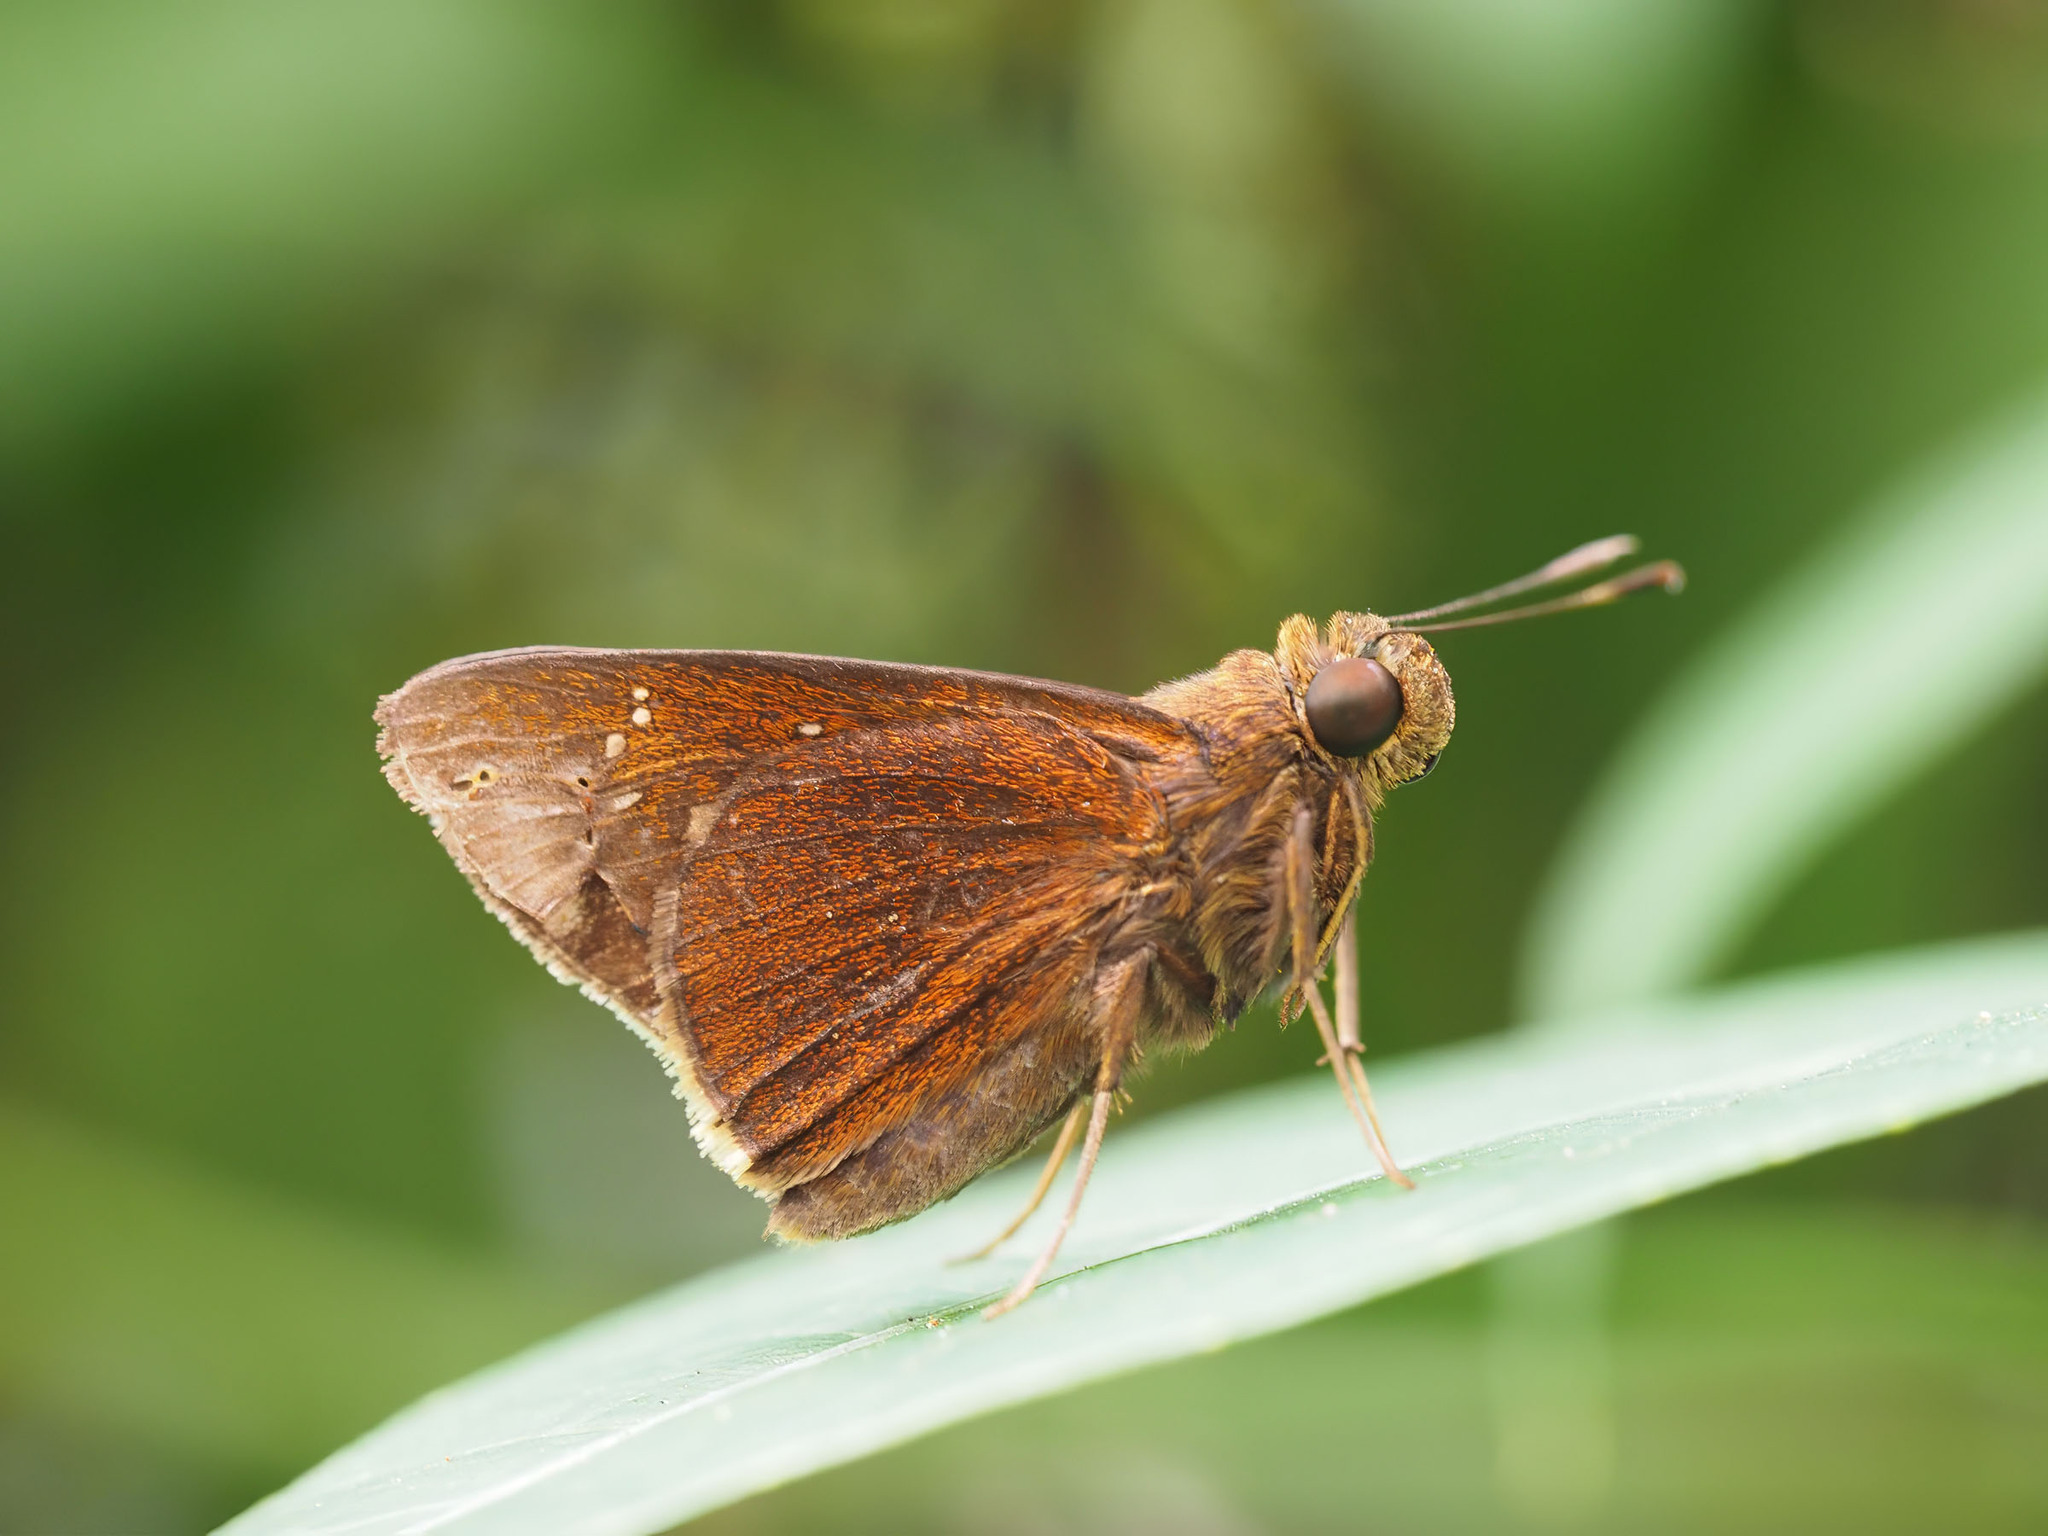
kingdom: Animalia
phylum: Arthropoda
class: Insecta
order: Lepidoptera
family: Hesperiidae
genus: Caltoris
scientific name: Caltoris cormasa
